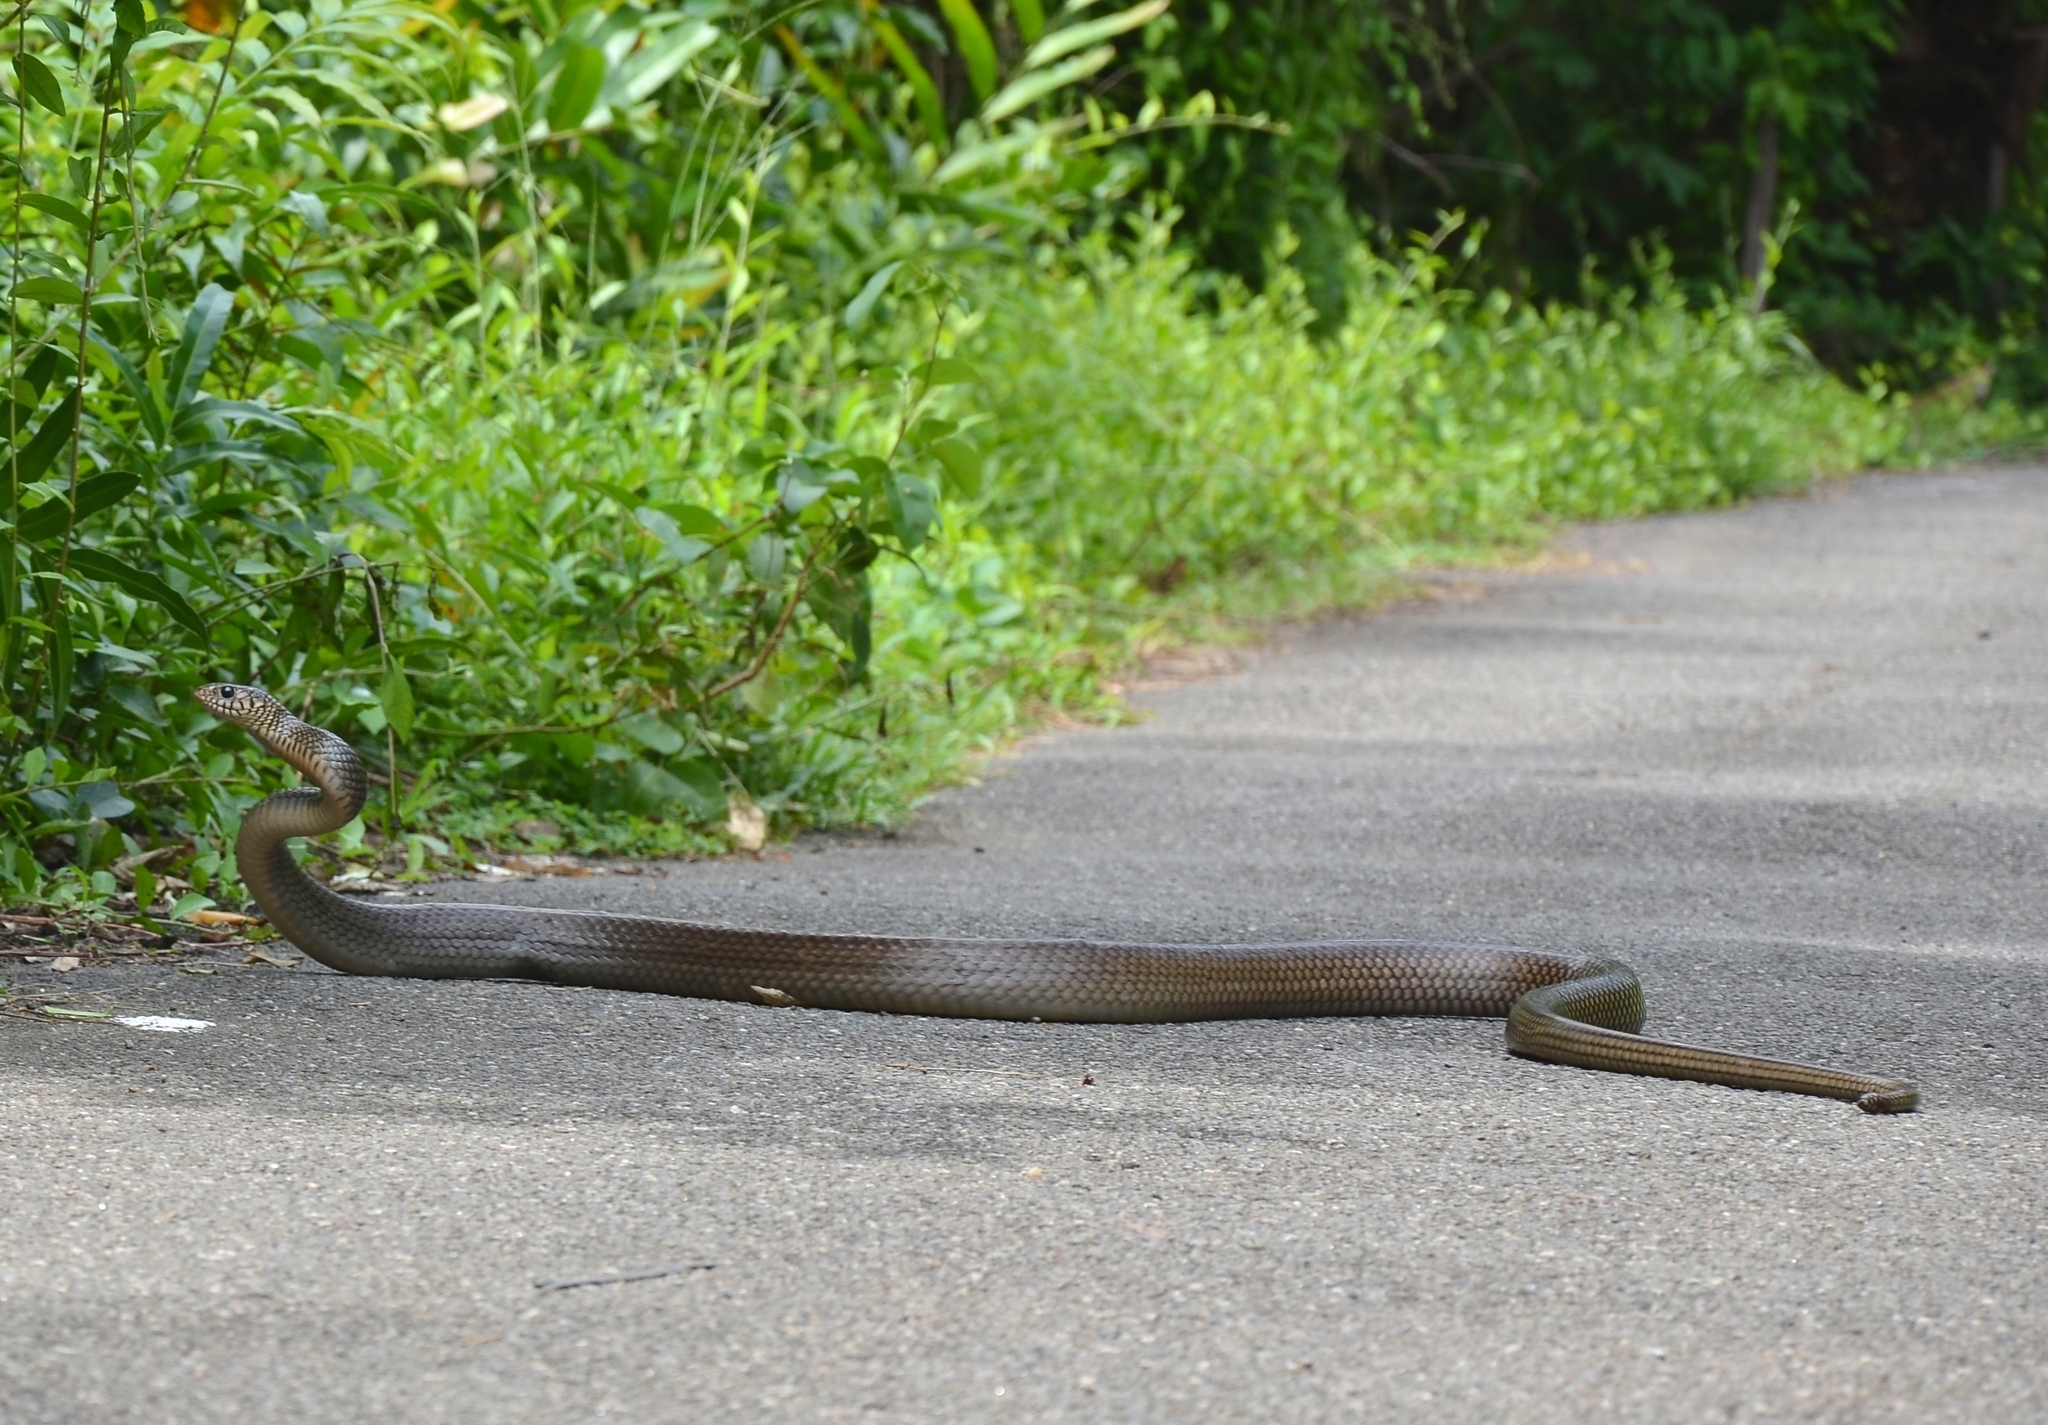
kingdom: Animalia
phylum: Chordata
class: Squamata
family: Colubridae
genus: Ptyas
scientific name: Ptyas mucosa
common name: Oriental ratsnake
